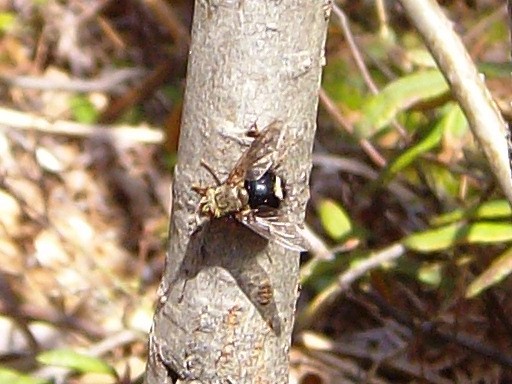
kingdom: Animalia
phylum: Arthropoda
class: Insecta
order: Diptera
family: Tachinidae
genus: Epalpus
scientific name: Epalpus signifer
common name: Early tachinid fly
